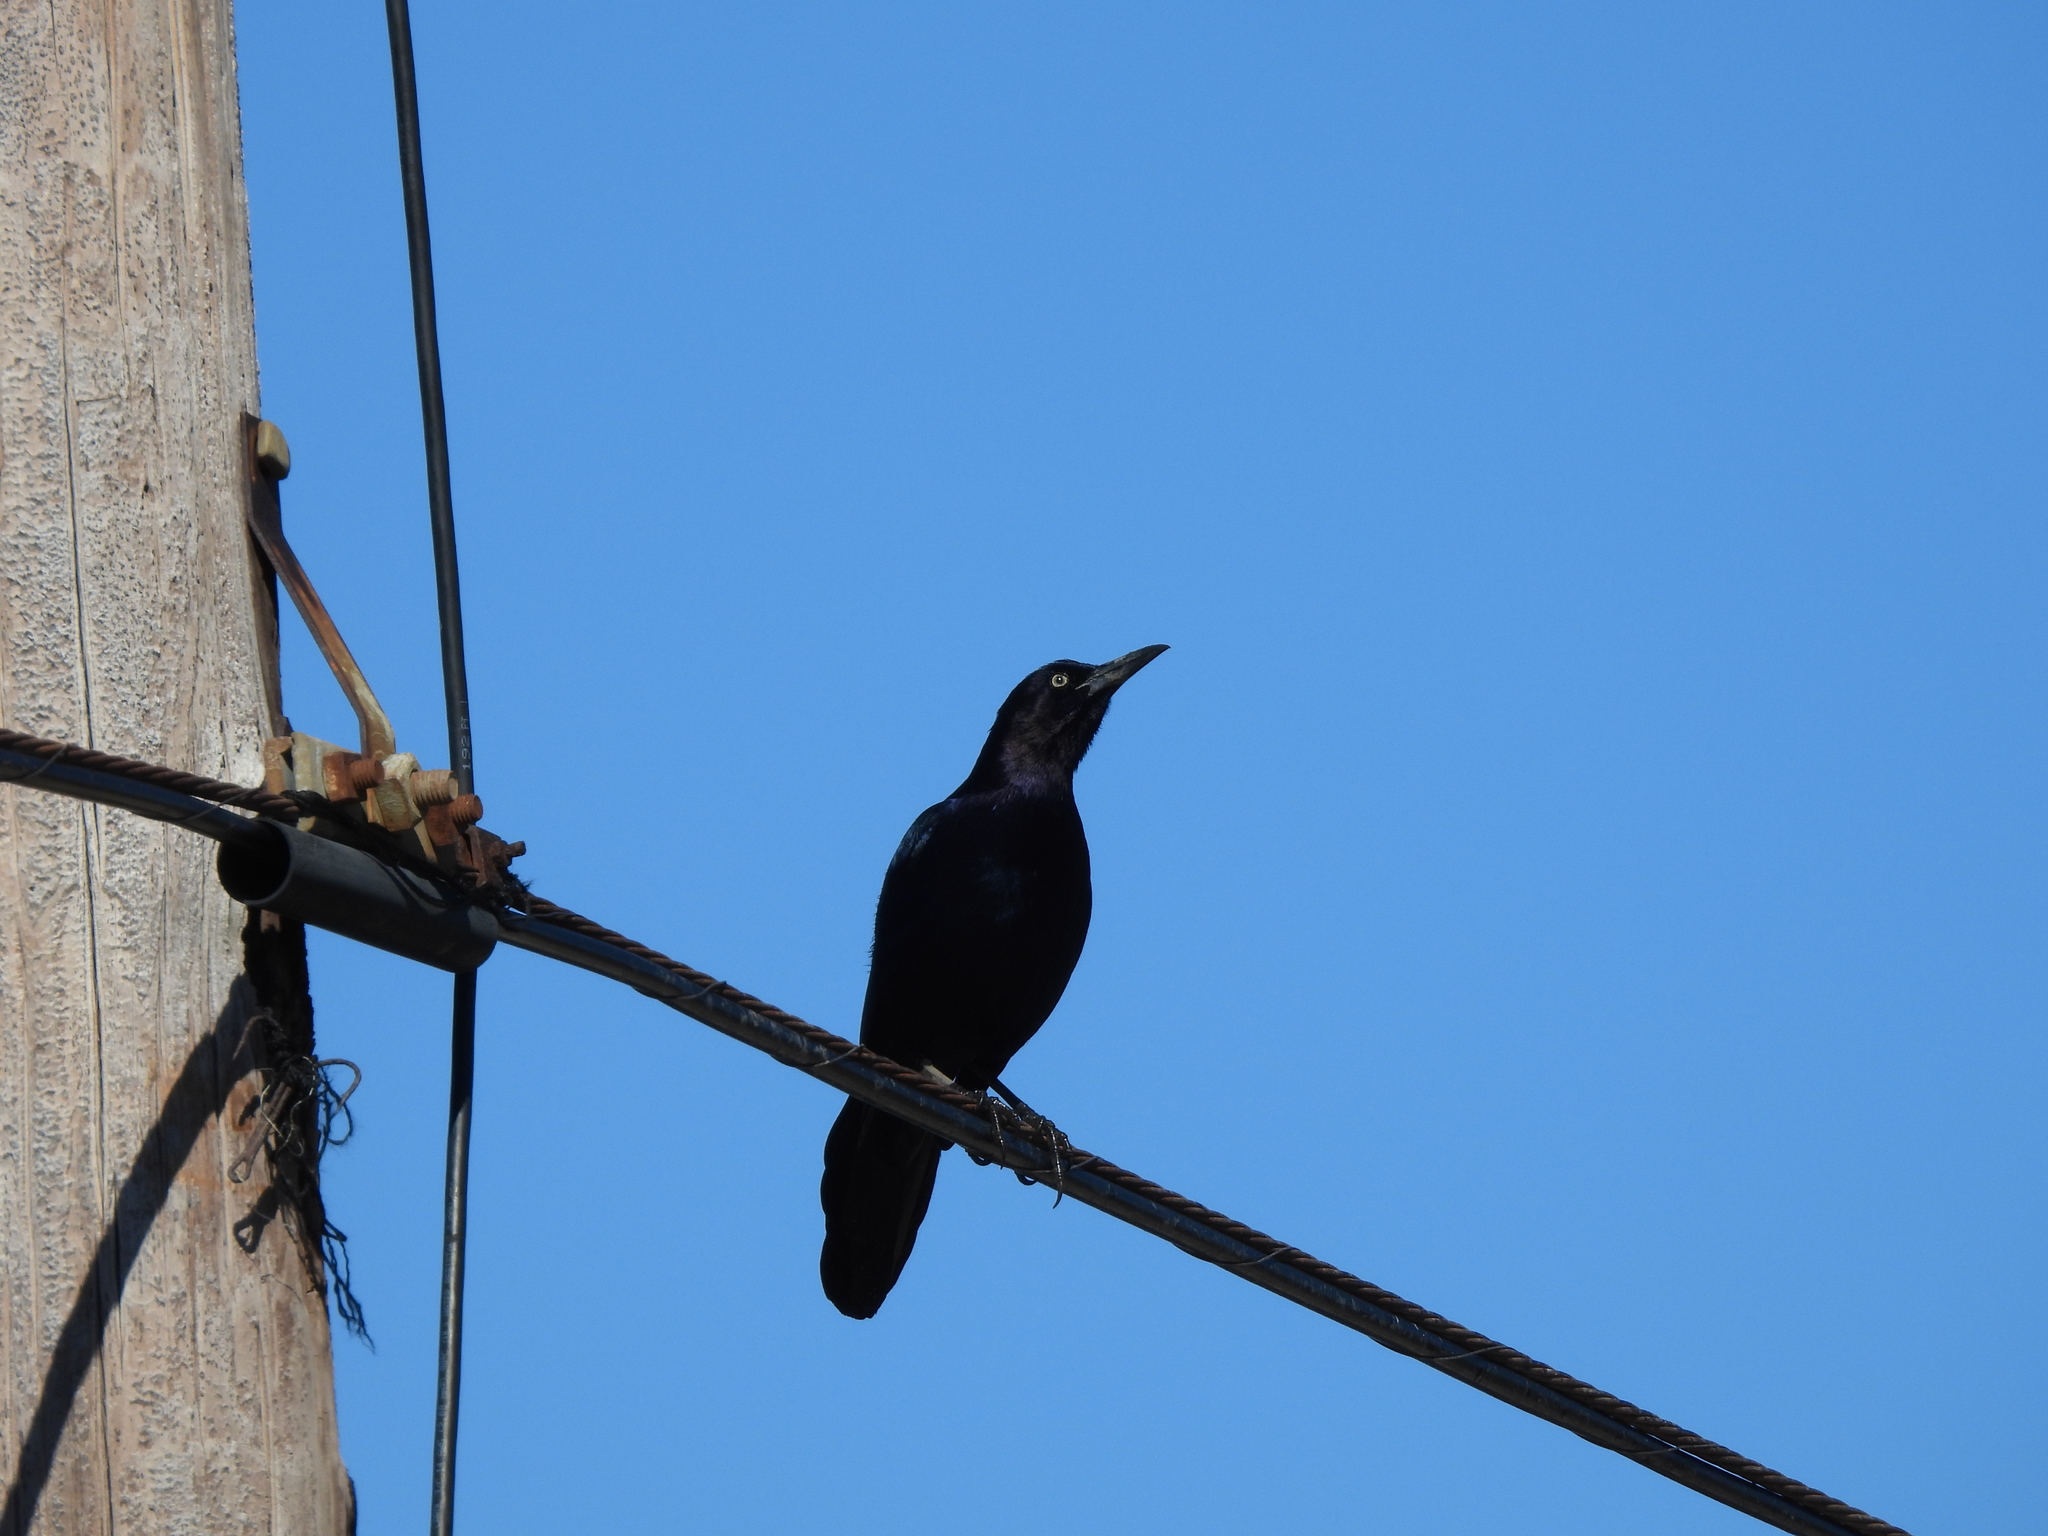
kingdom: Animalia
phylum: Chordata
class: Aves
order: Passeriformes
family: Icteridae
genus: Quiscalus
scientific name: Quiscalus major
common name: Boat-tailed grackle
